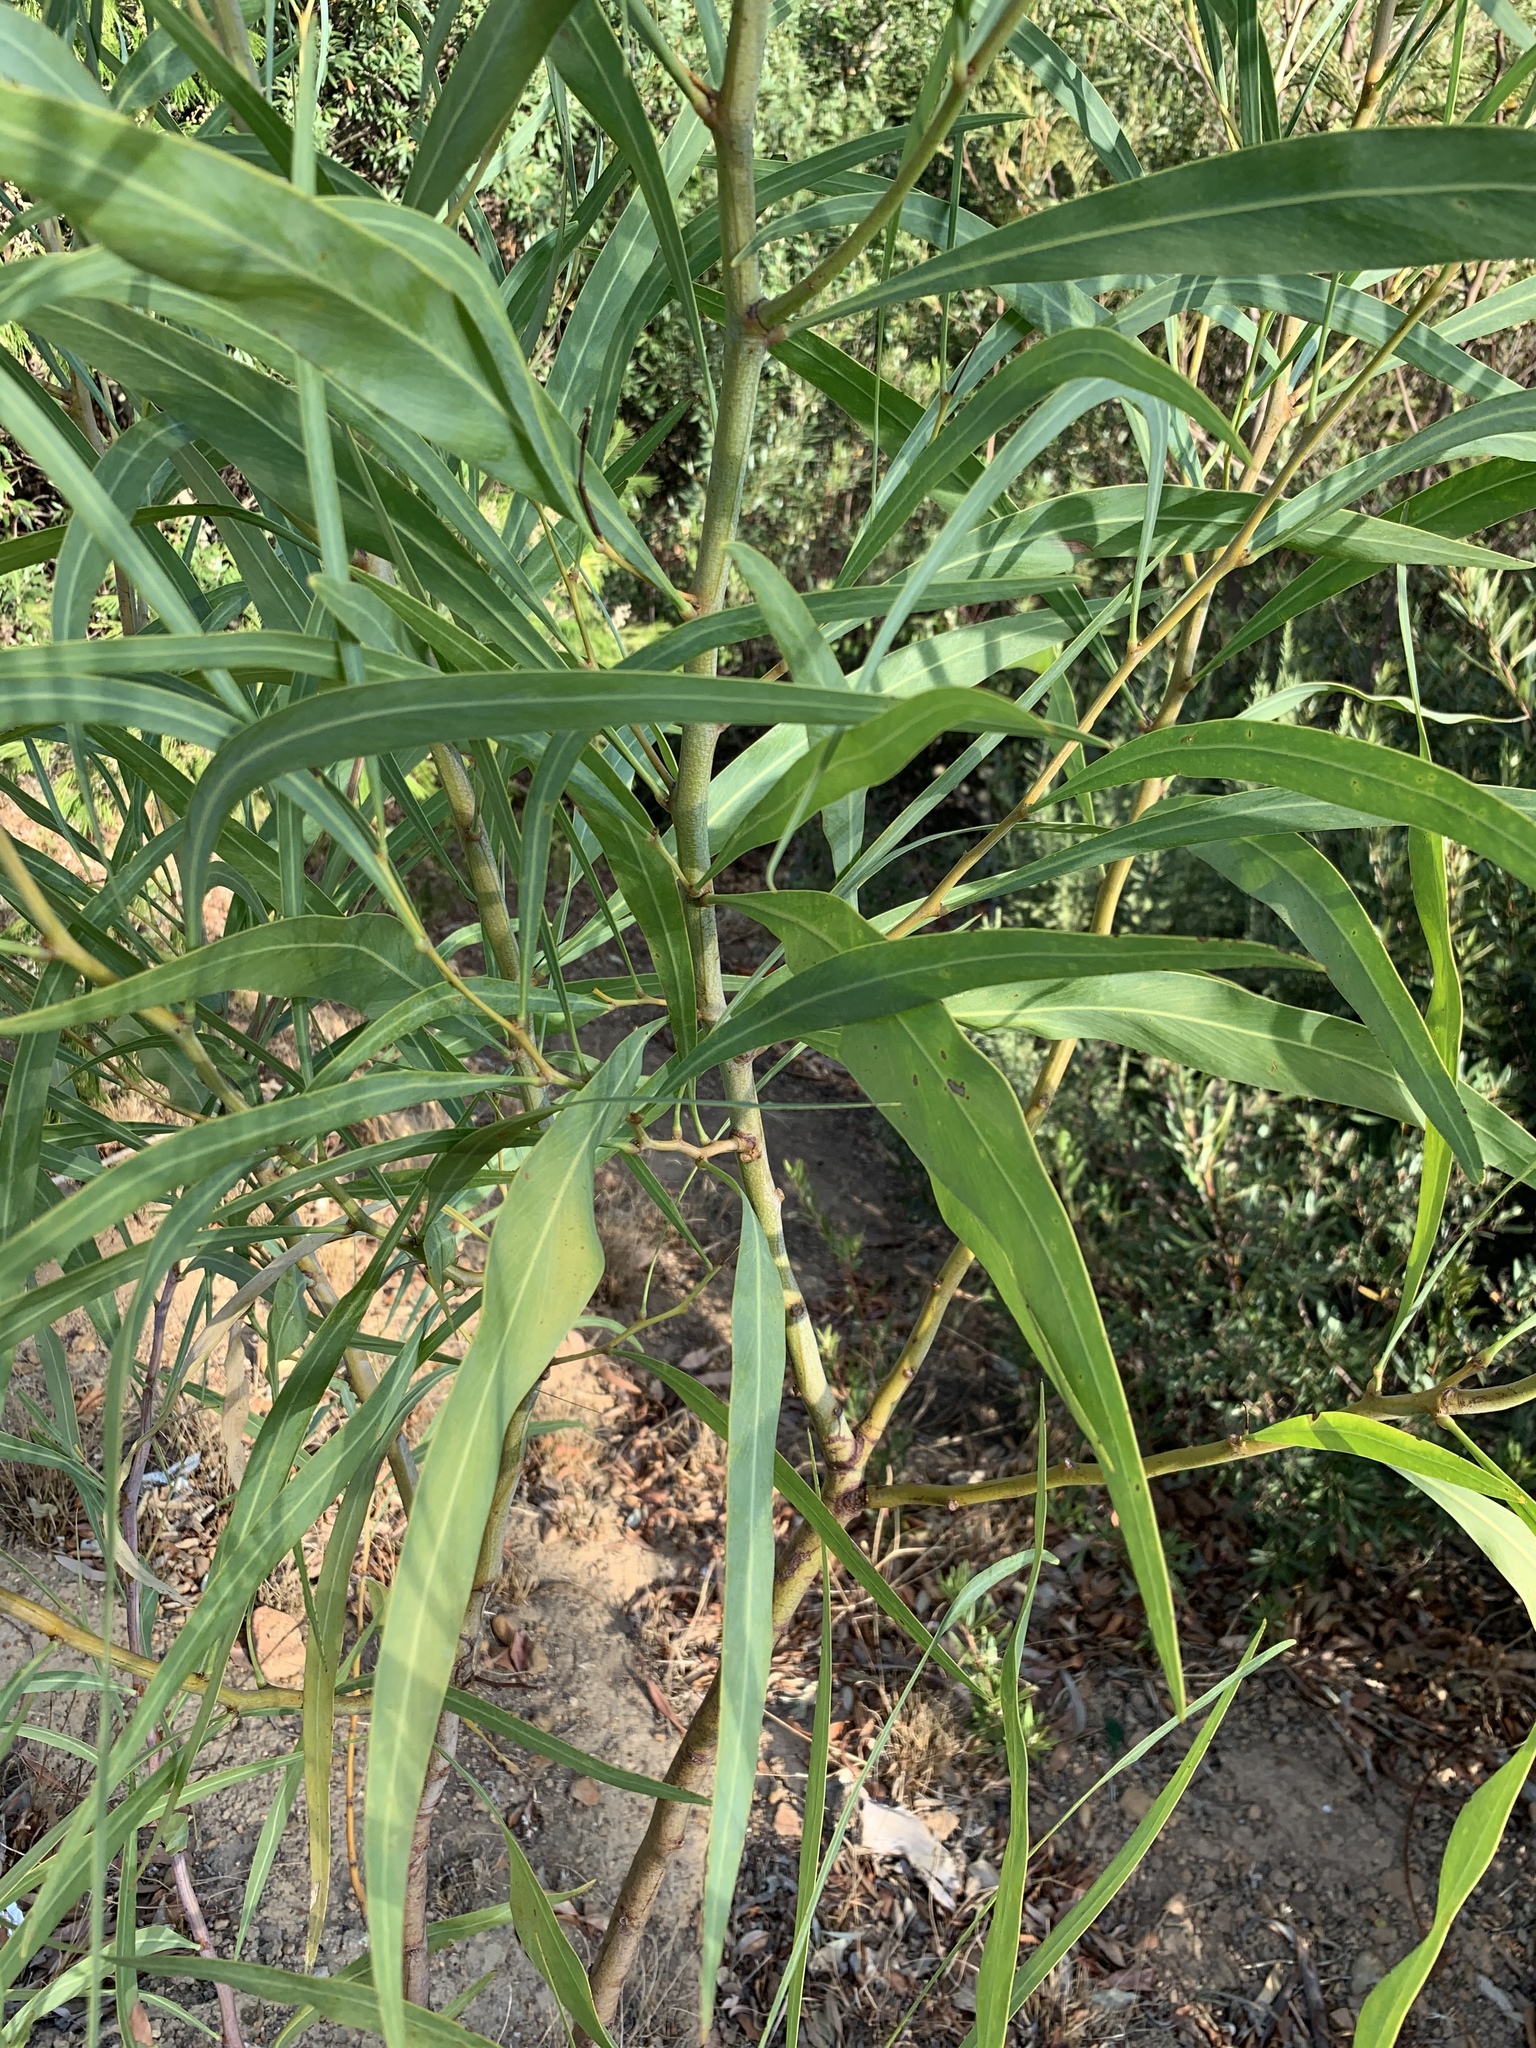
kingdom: Plantae
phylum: Tracheophyta
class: Magnoliopsida
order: Fabales
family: Fabaceae
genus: Acacia
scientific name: Acacia saligna
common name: Orange wattle
